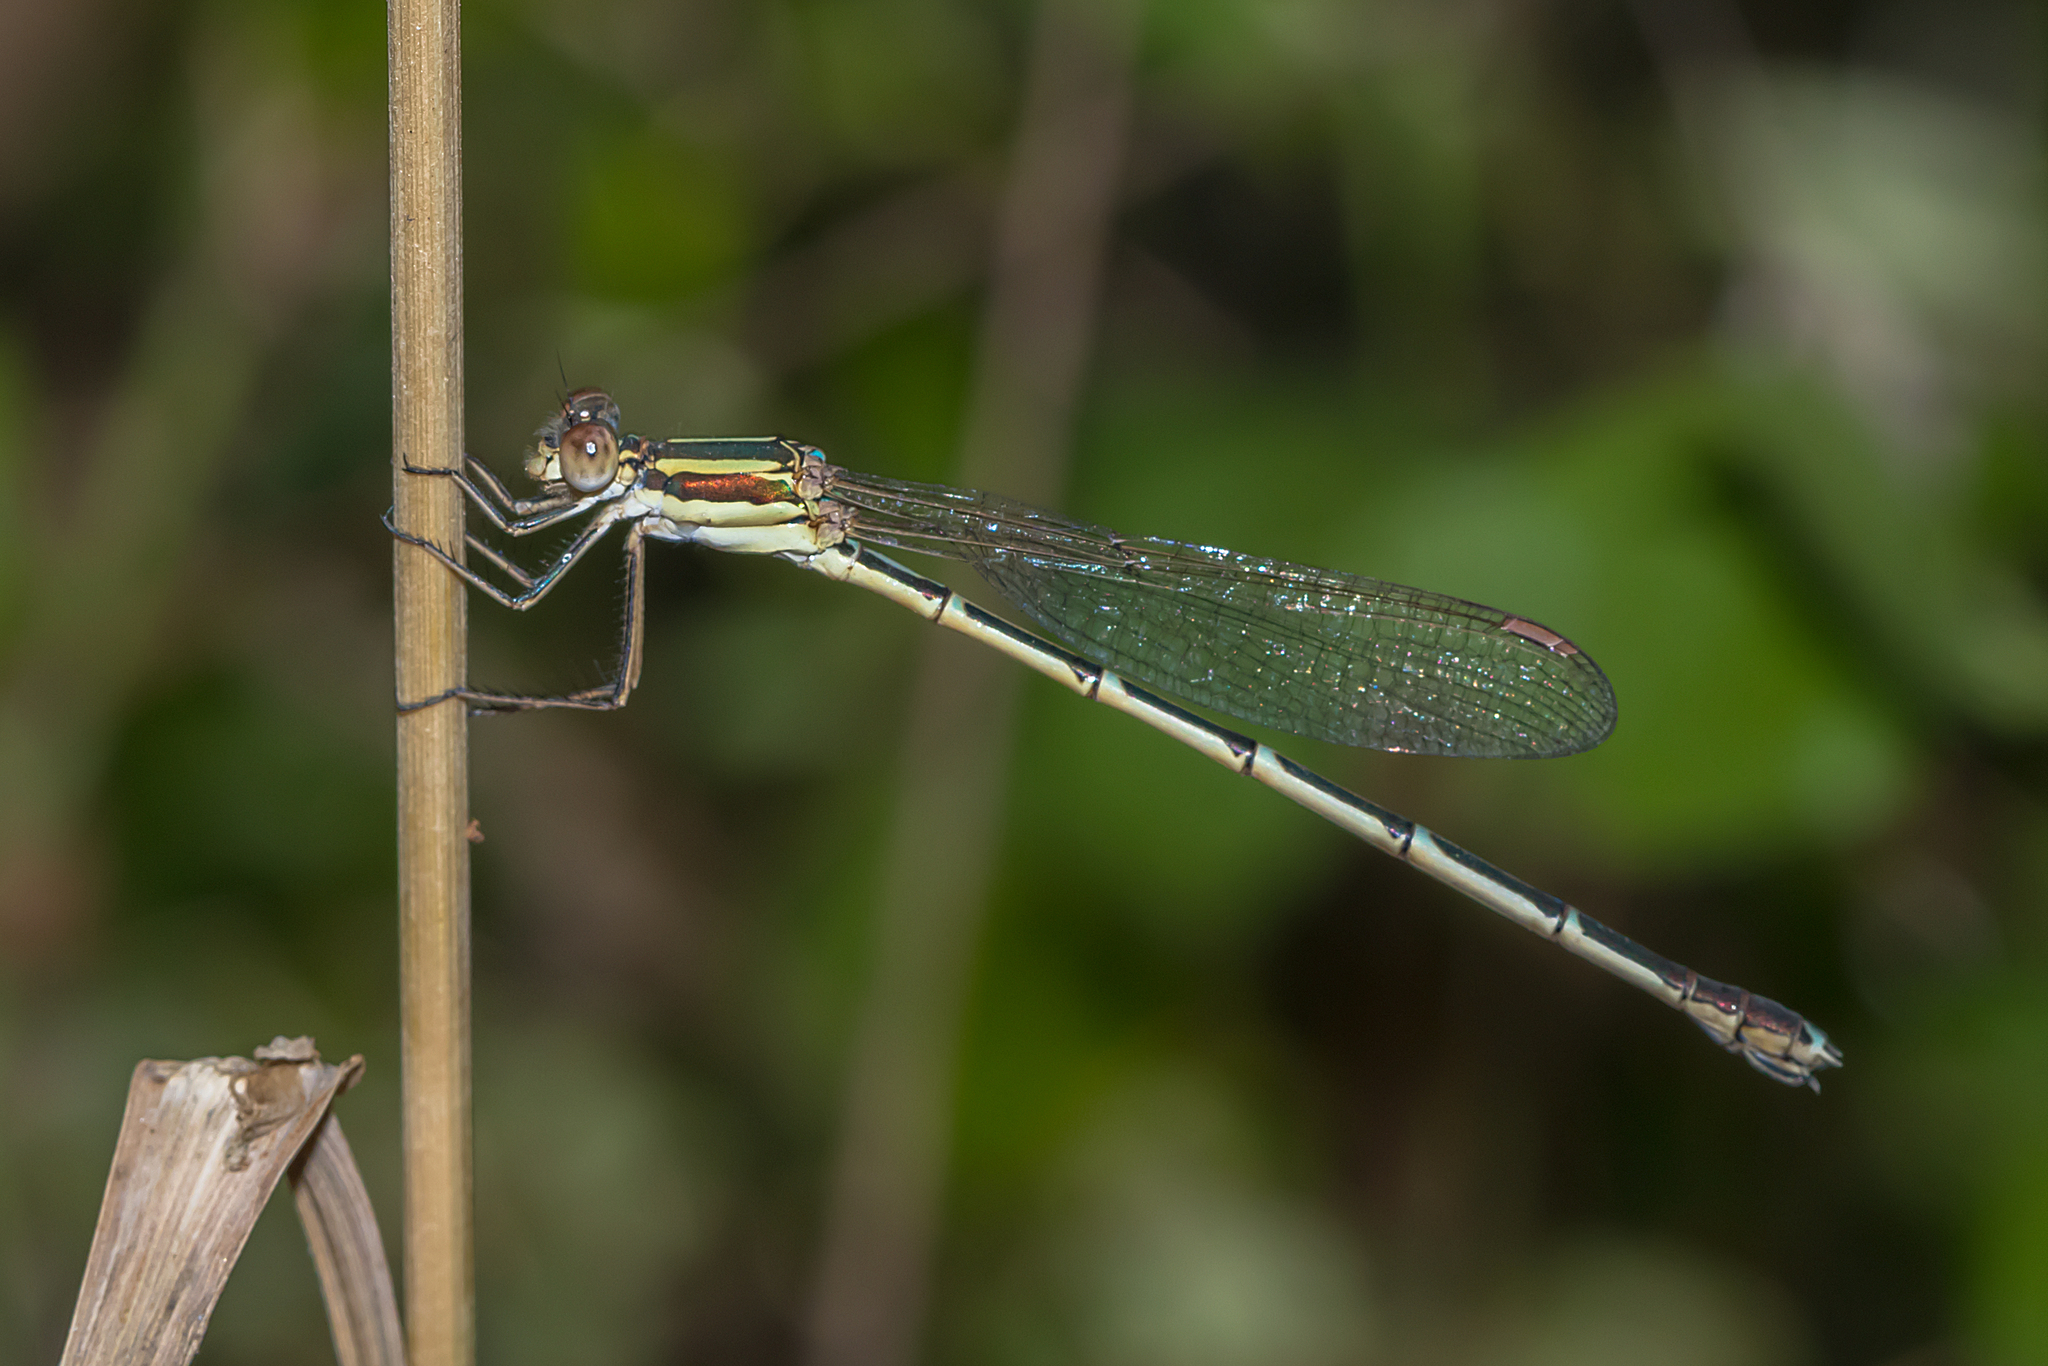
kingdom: Animalia
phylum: Arthropoda
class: Insecta
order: Odonata
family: Lestidae
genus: Austrolestes
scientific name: Austrolestes analis
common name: Slender ringtail
